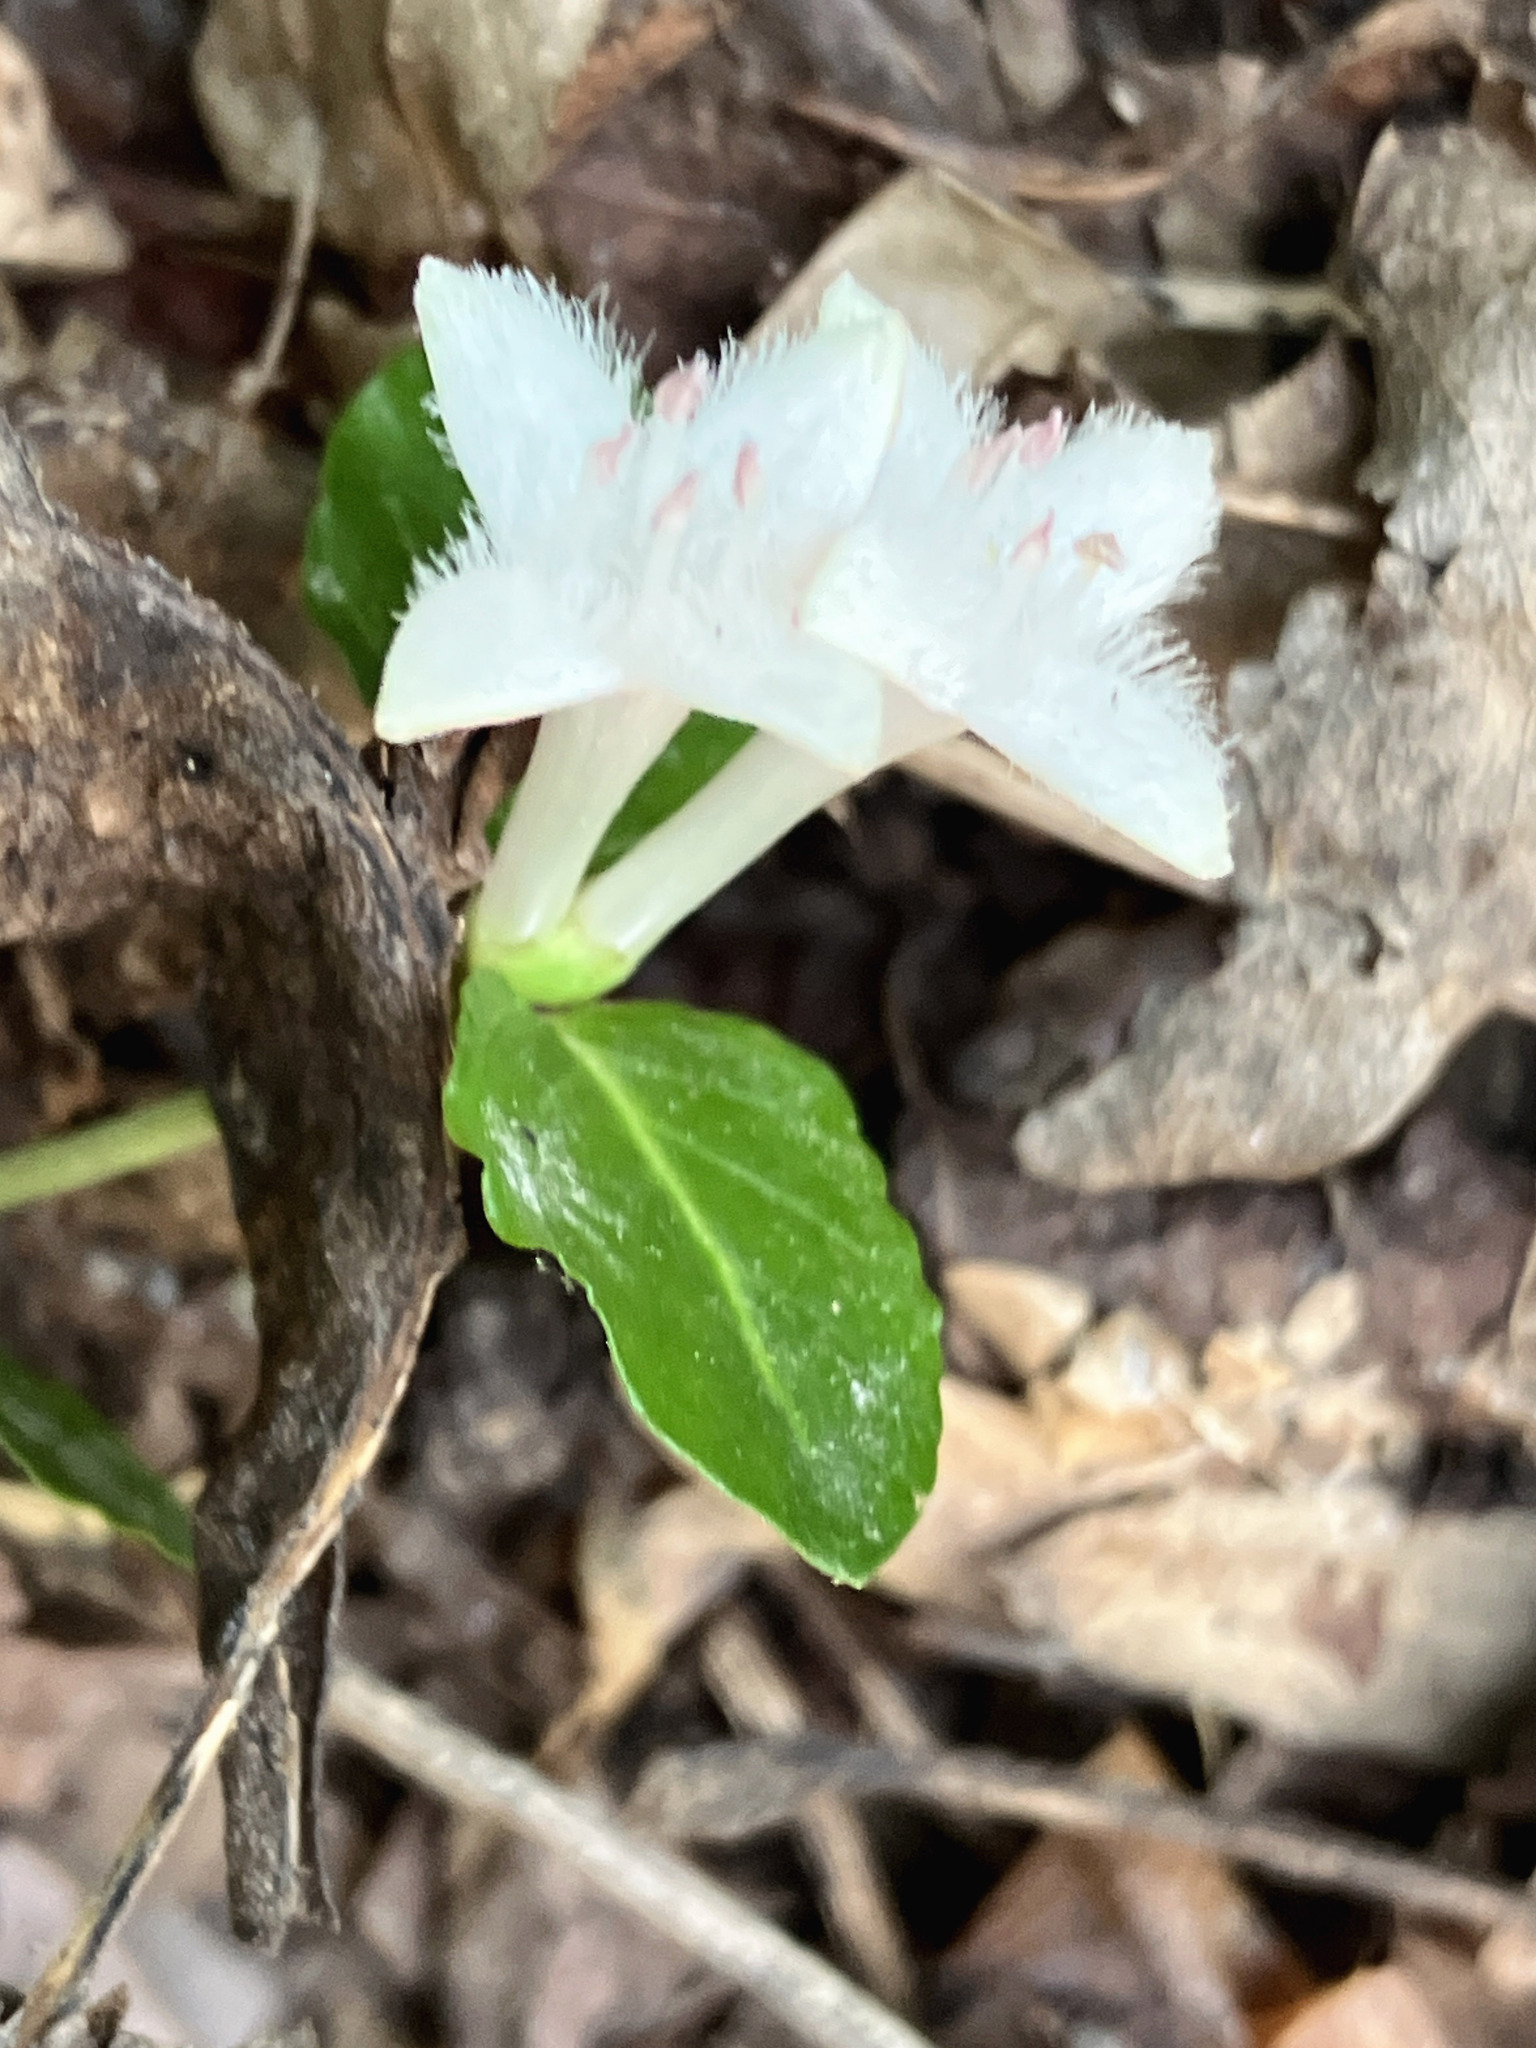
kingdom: Plantae
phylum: Tracheophyta
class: Magnoliopsida
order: Gentianales
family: Rubiaceae
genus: Mitchella
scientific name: Mitchella repens
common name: Partridge-berry
